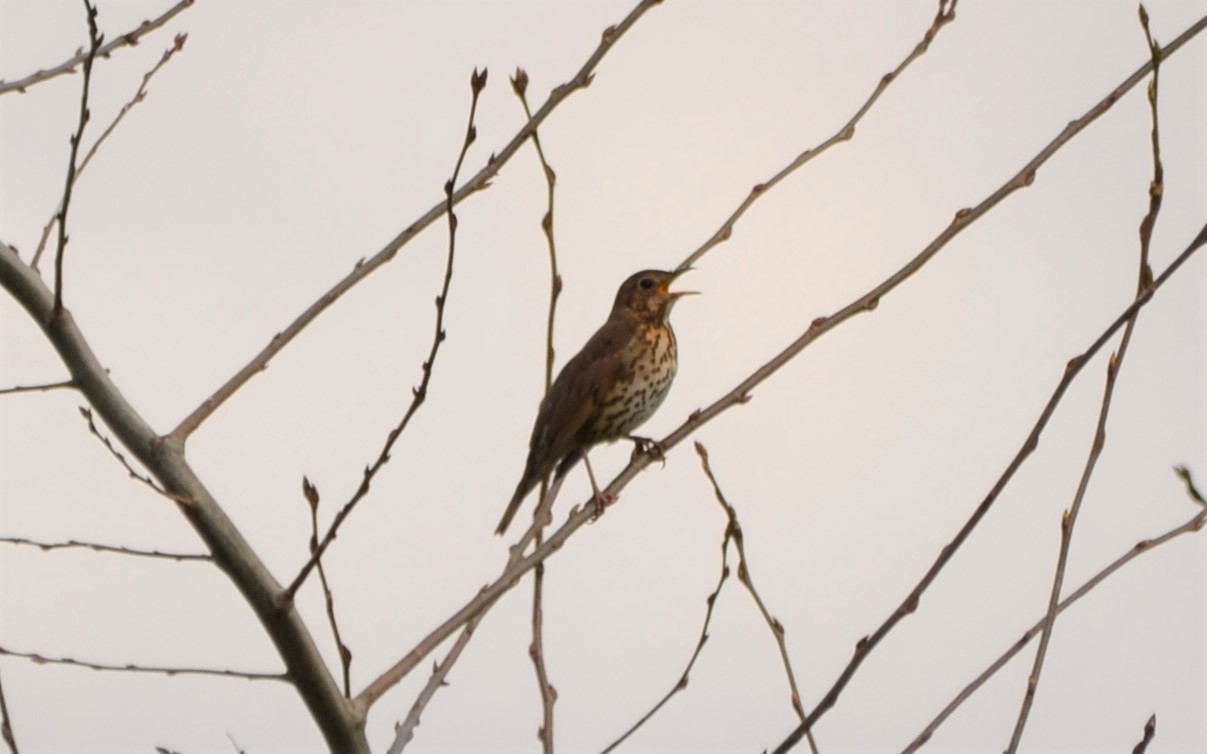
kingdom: Animalia
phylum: Chordata
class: Aves
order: Passeriformes
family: Turdidae
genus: Turdus
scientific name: Turdus philomelos
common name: Song thrush
